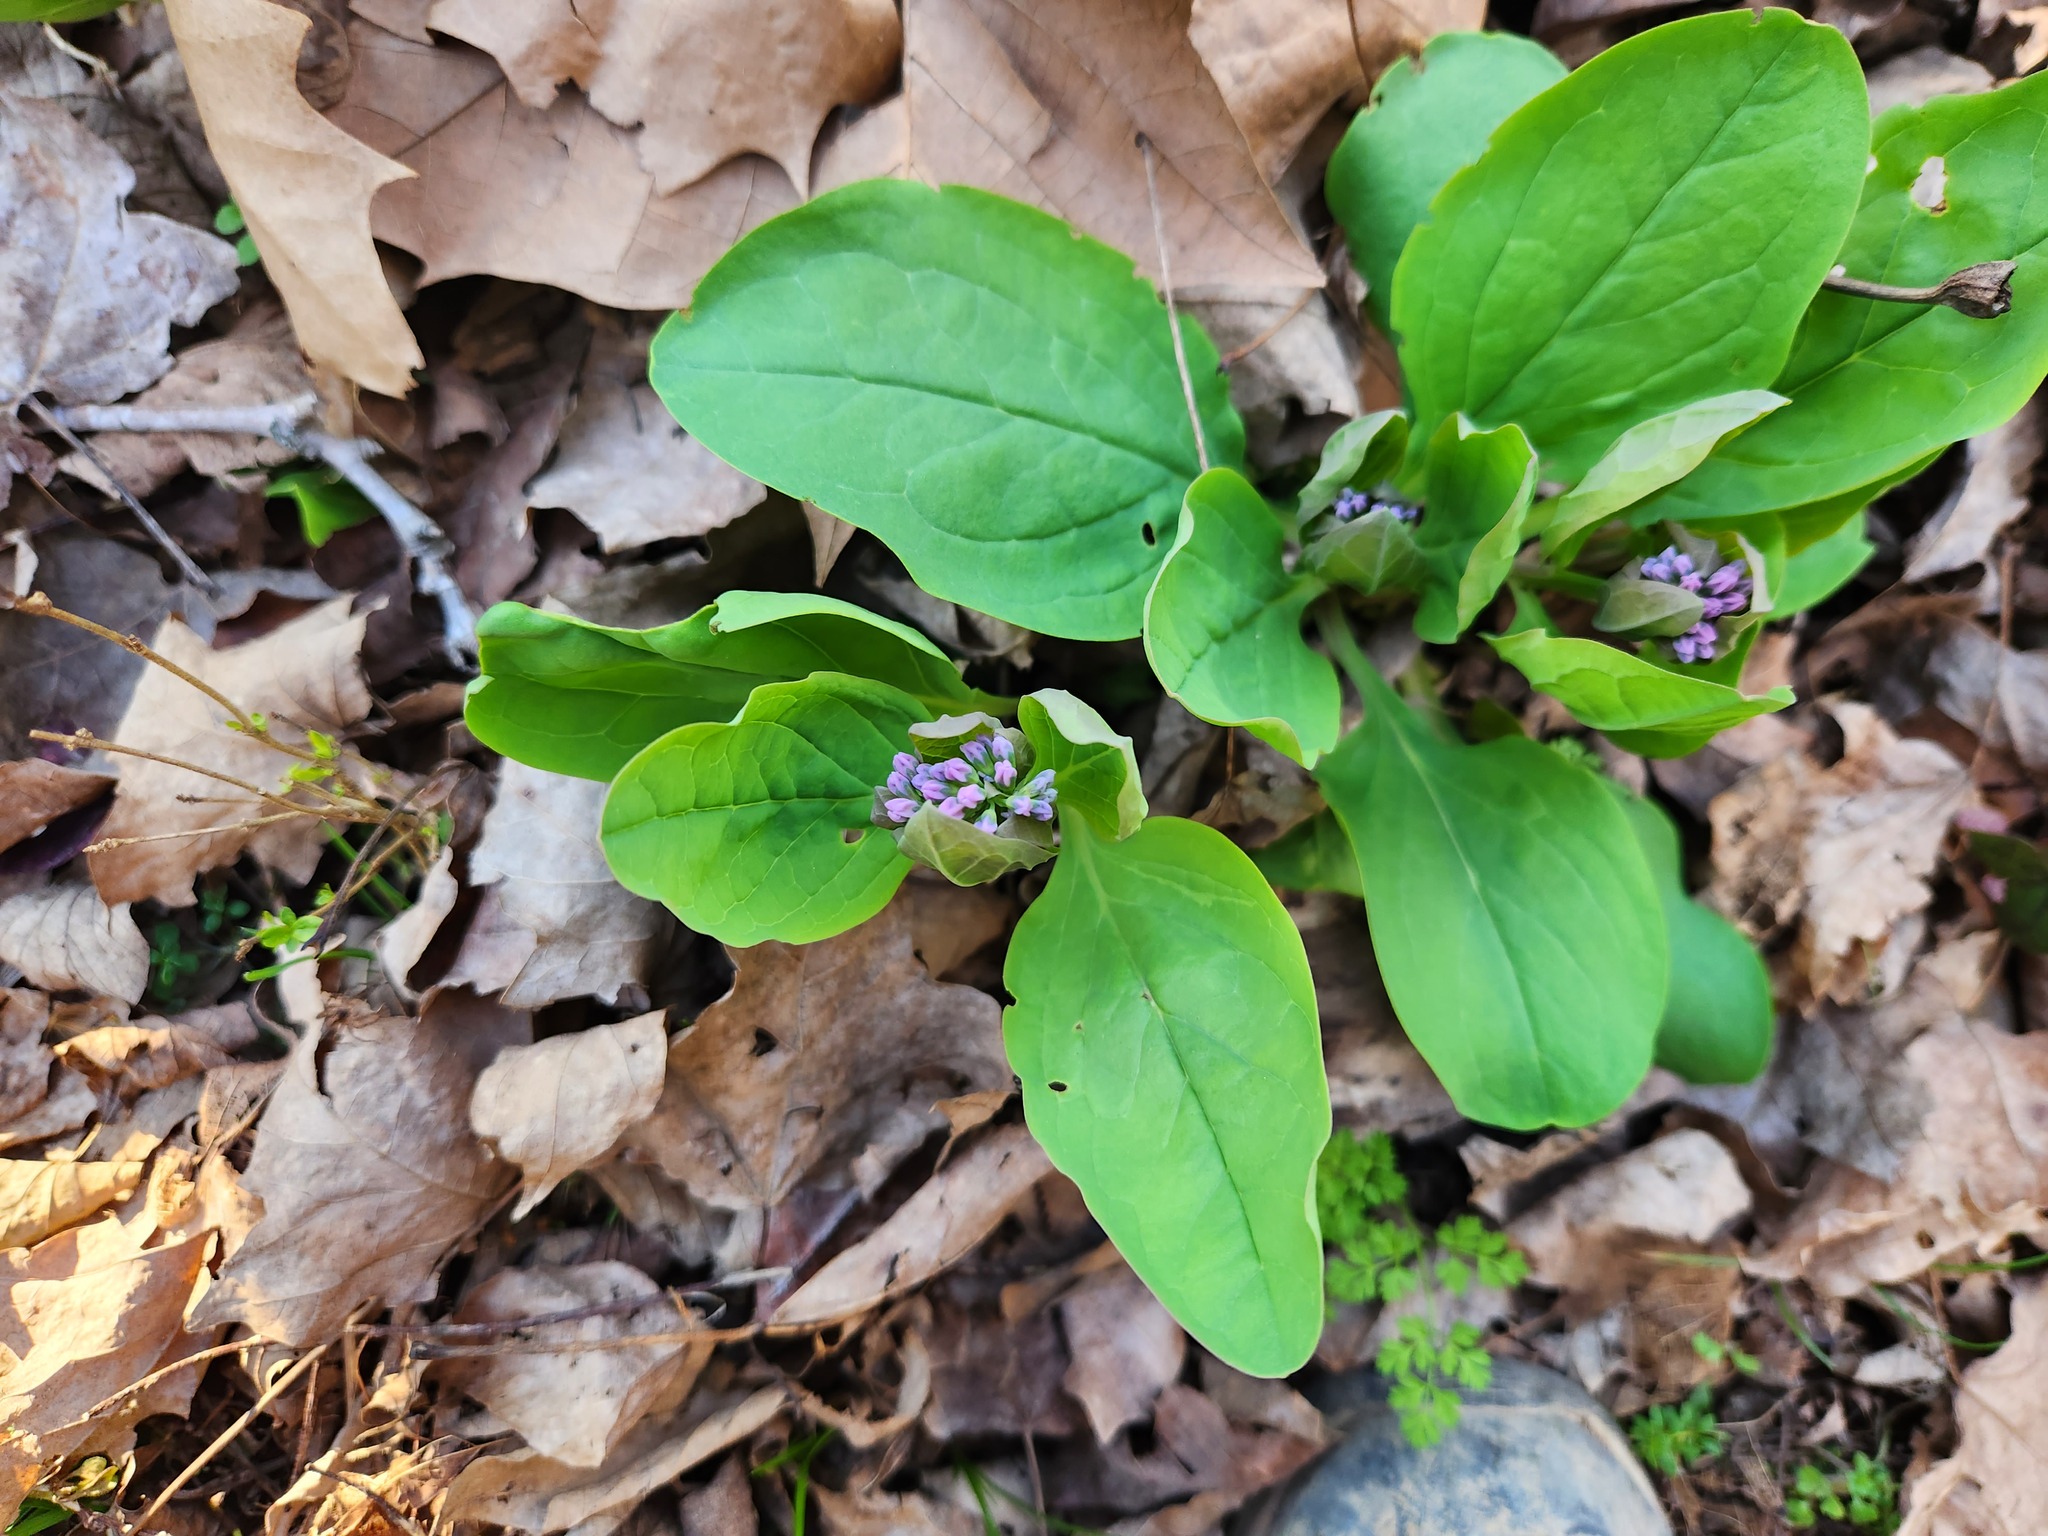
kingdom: Plantae
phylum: Tracheophyta
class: Magnoliopsida
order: Boraginales
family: Boraginaceae
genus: Mertensia
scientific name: Mertensia virginica
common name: Virginia bluebells
